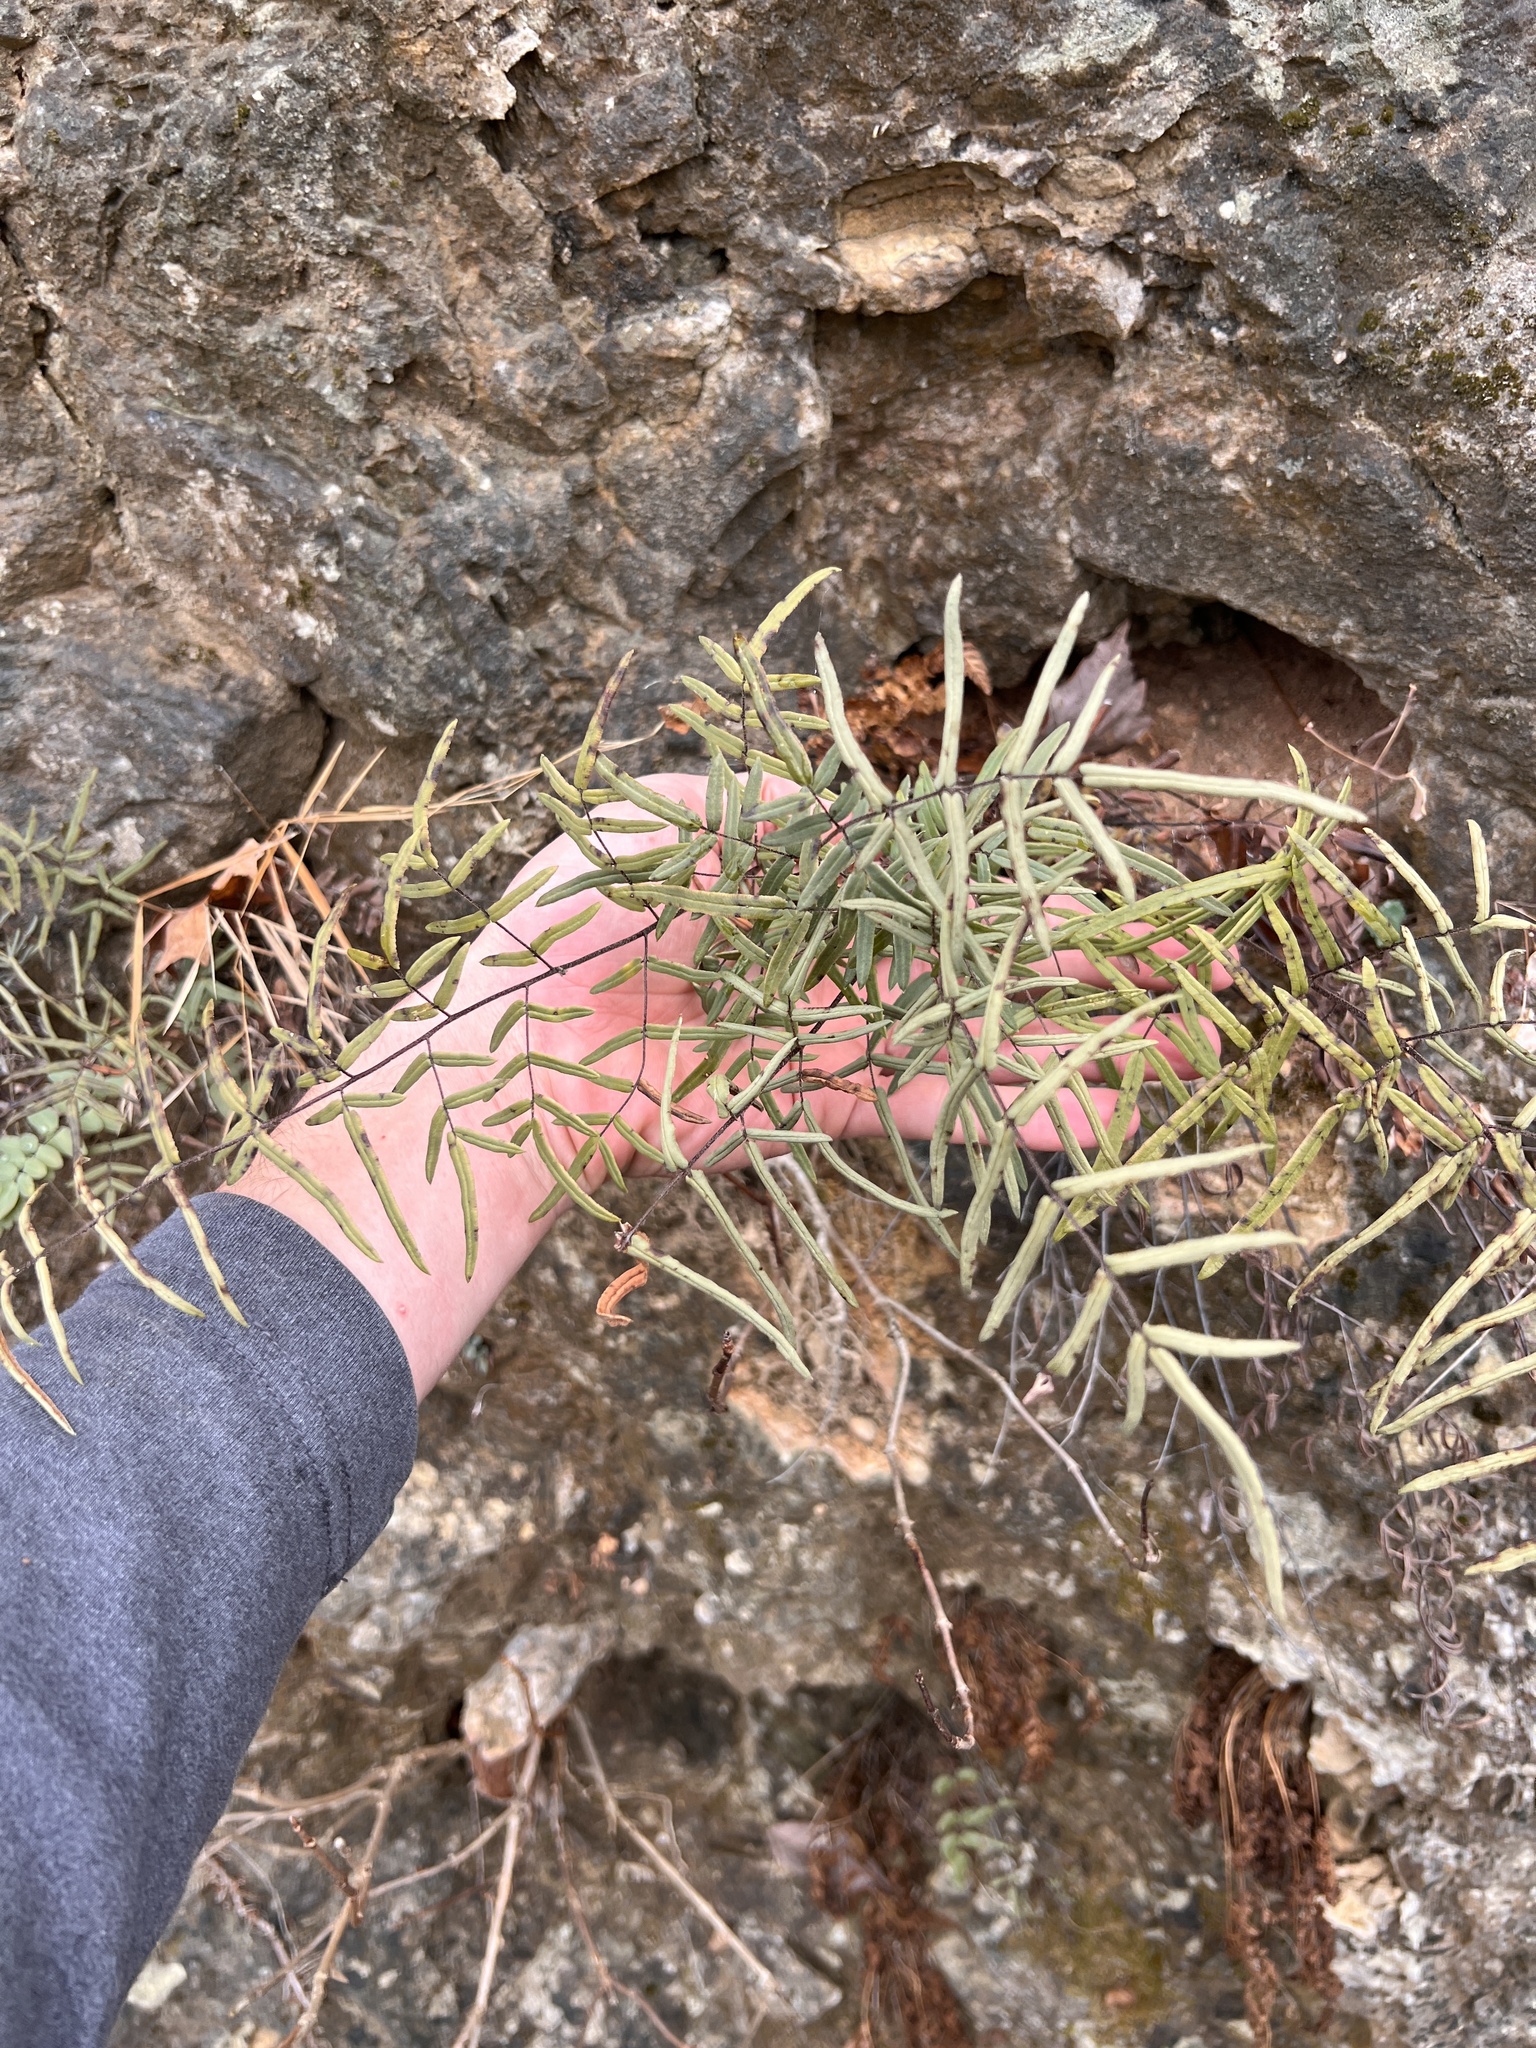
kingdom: Plantae
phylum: Tracheophyta
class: Polypodiopsida
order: Polypodiales
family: Pteridaceae
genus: Pellaea
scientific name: Pellaea atropurpurea
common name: Hairy cliffbrake
